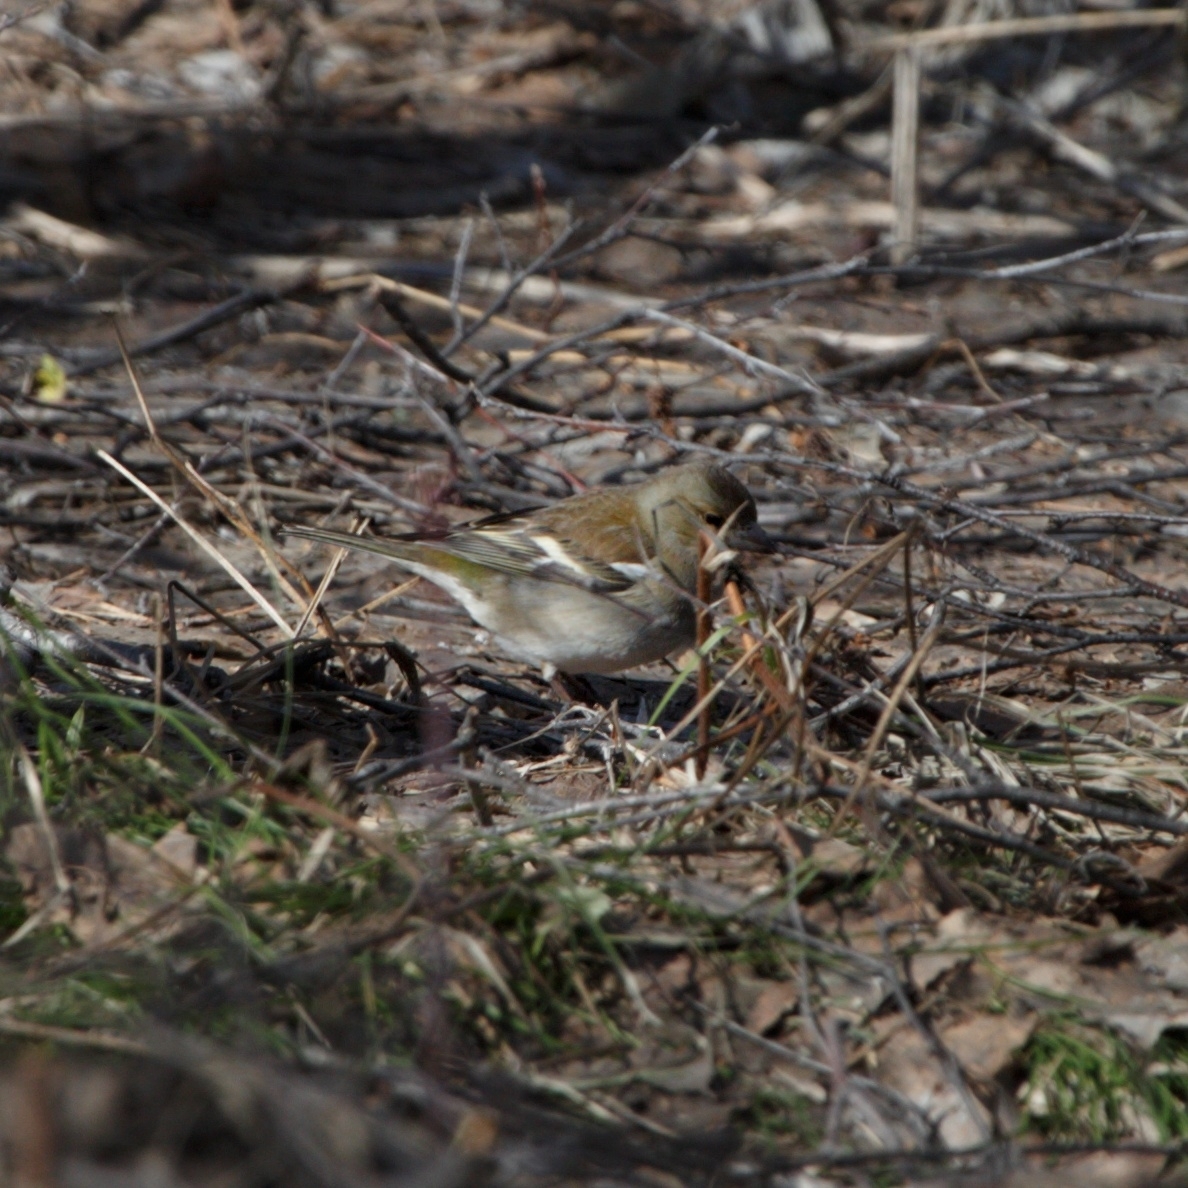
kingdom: Animalia
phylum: Chordata
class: Aves
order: Passeriformes
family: Fringillidae
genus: Fringilla
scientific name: Fringilla coelebs
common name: Common chaffinch
